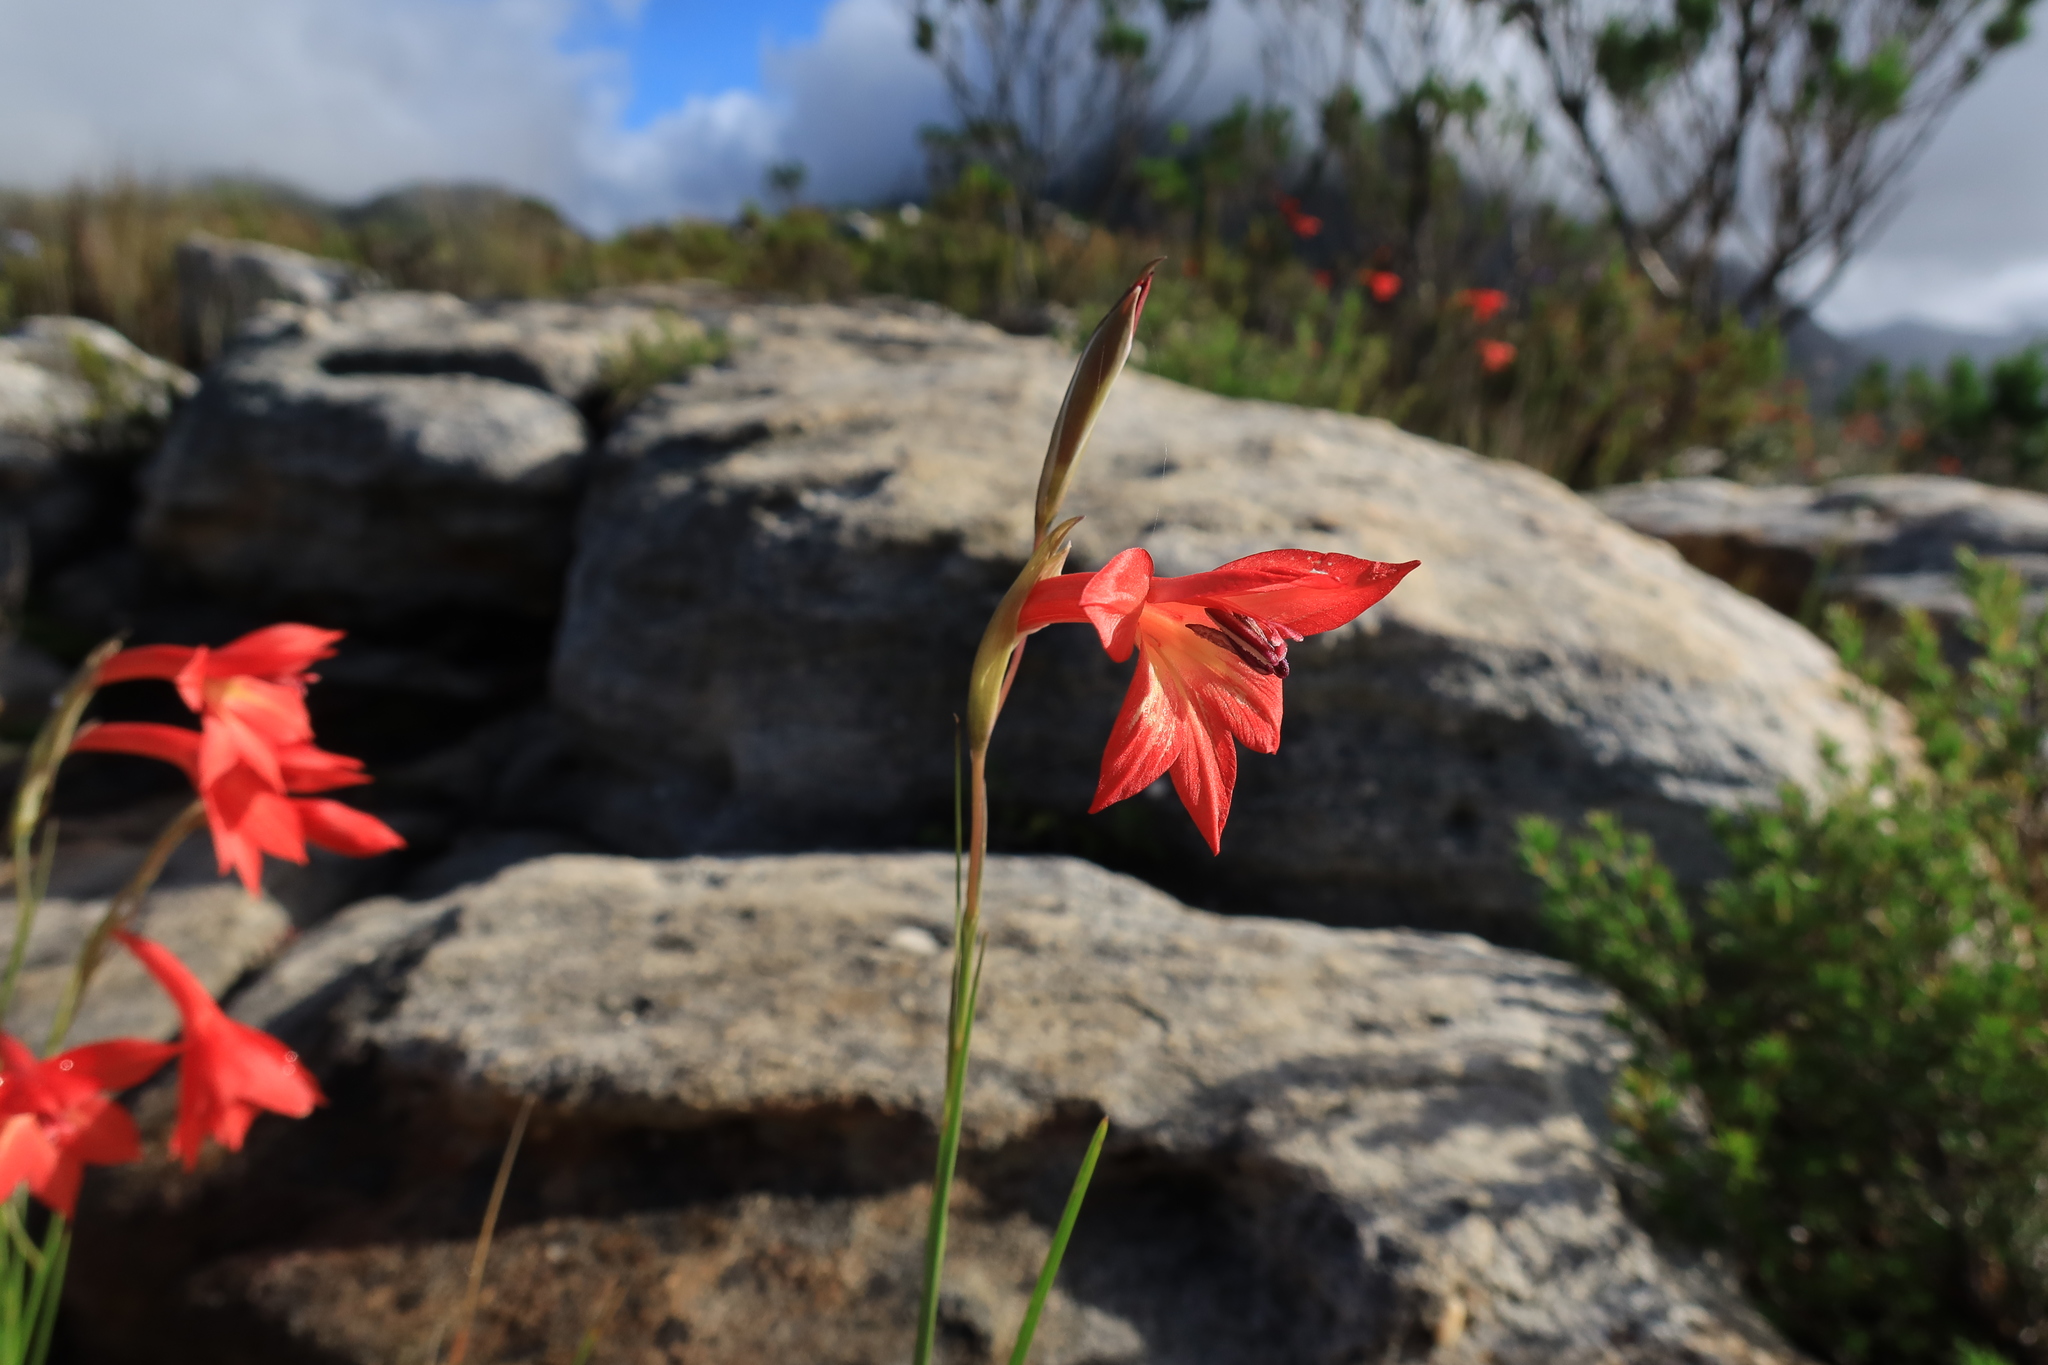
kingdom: Plantae
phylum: Tracheophyta
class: Liliopsida
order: Asparagales
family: Iridaceae
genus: Gladiolus
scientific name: Gladiolus priorii
